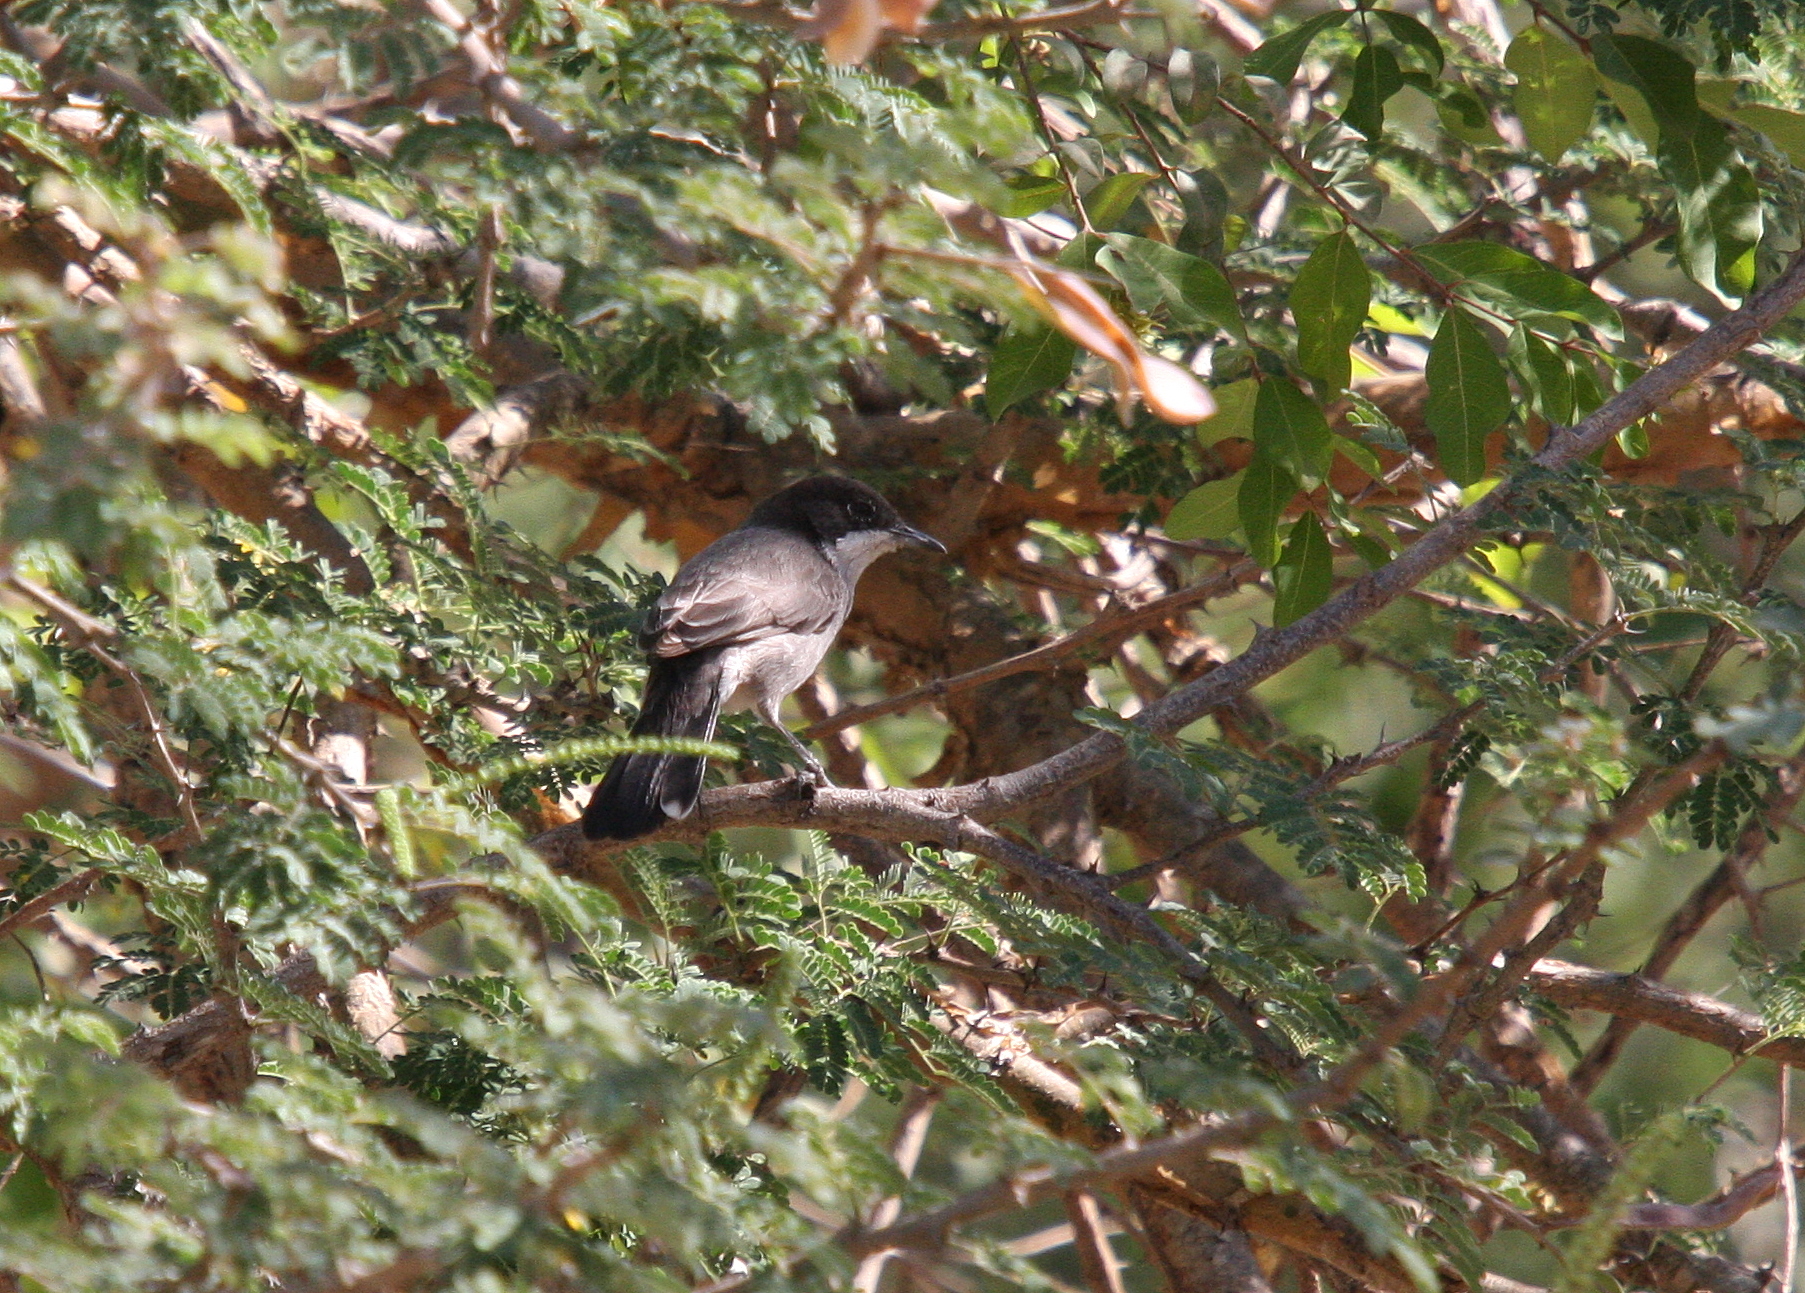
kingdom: Animalia
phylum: Chordata
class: Aves
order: Passeriformes
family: Sylviidae
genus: Sylvia
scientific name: Sylvia leucomelaena
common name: Arabian warbler
